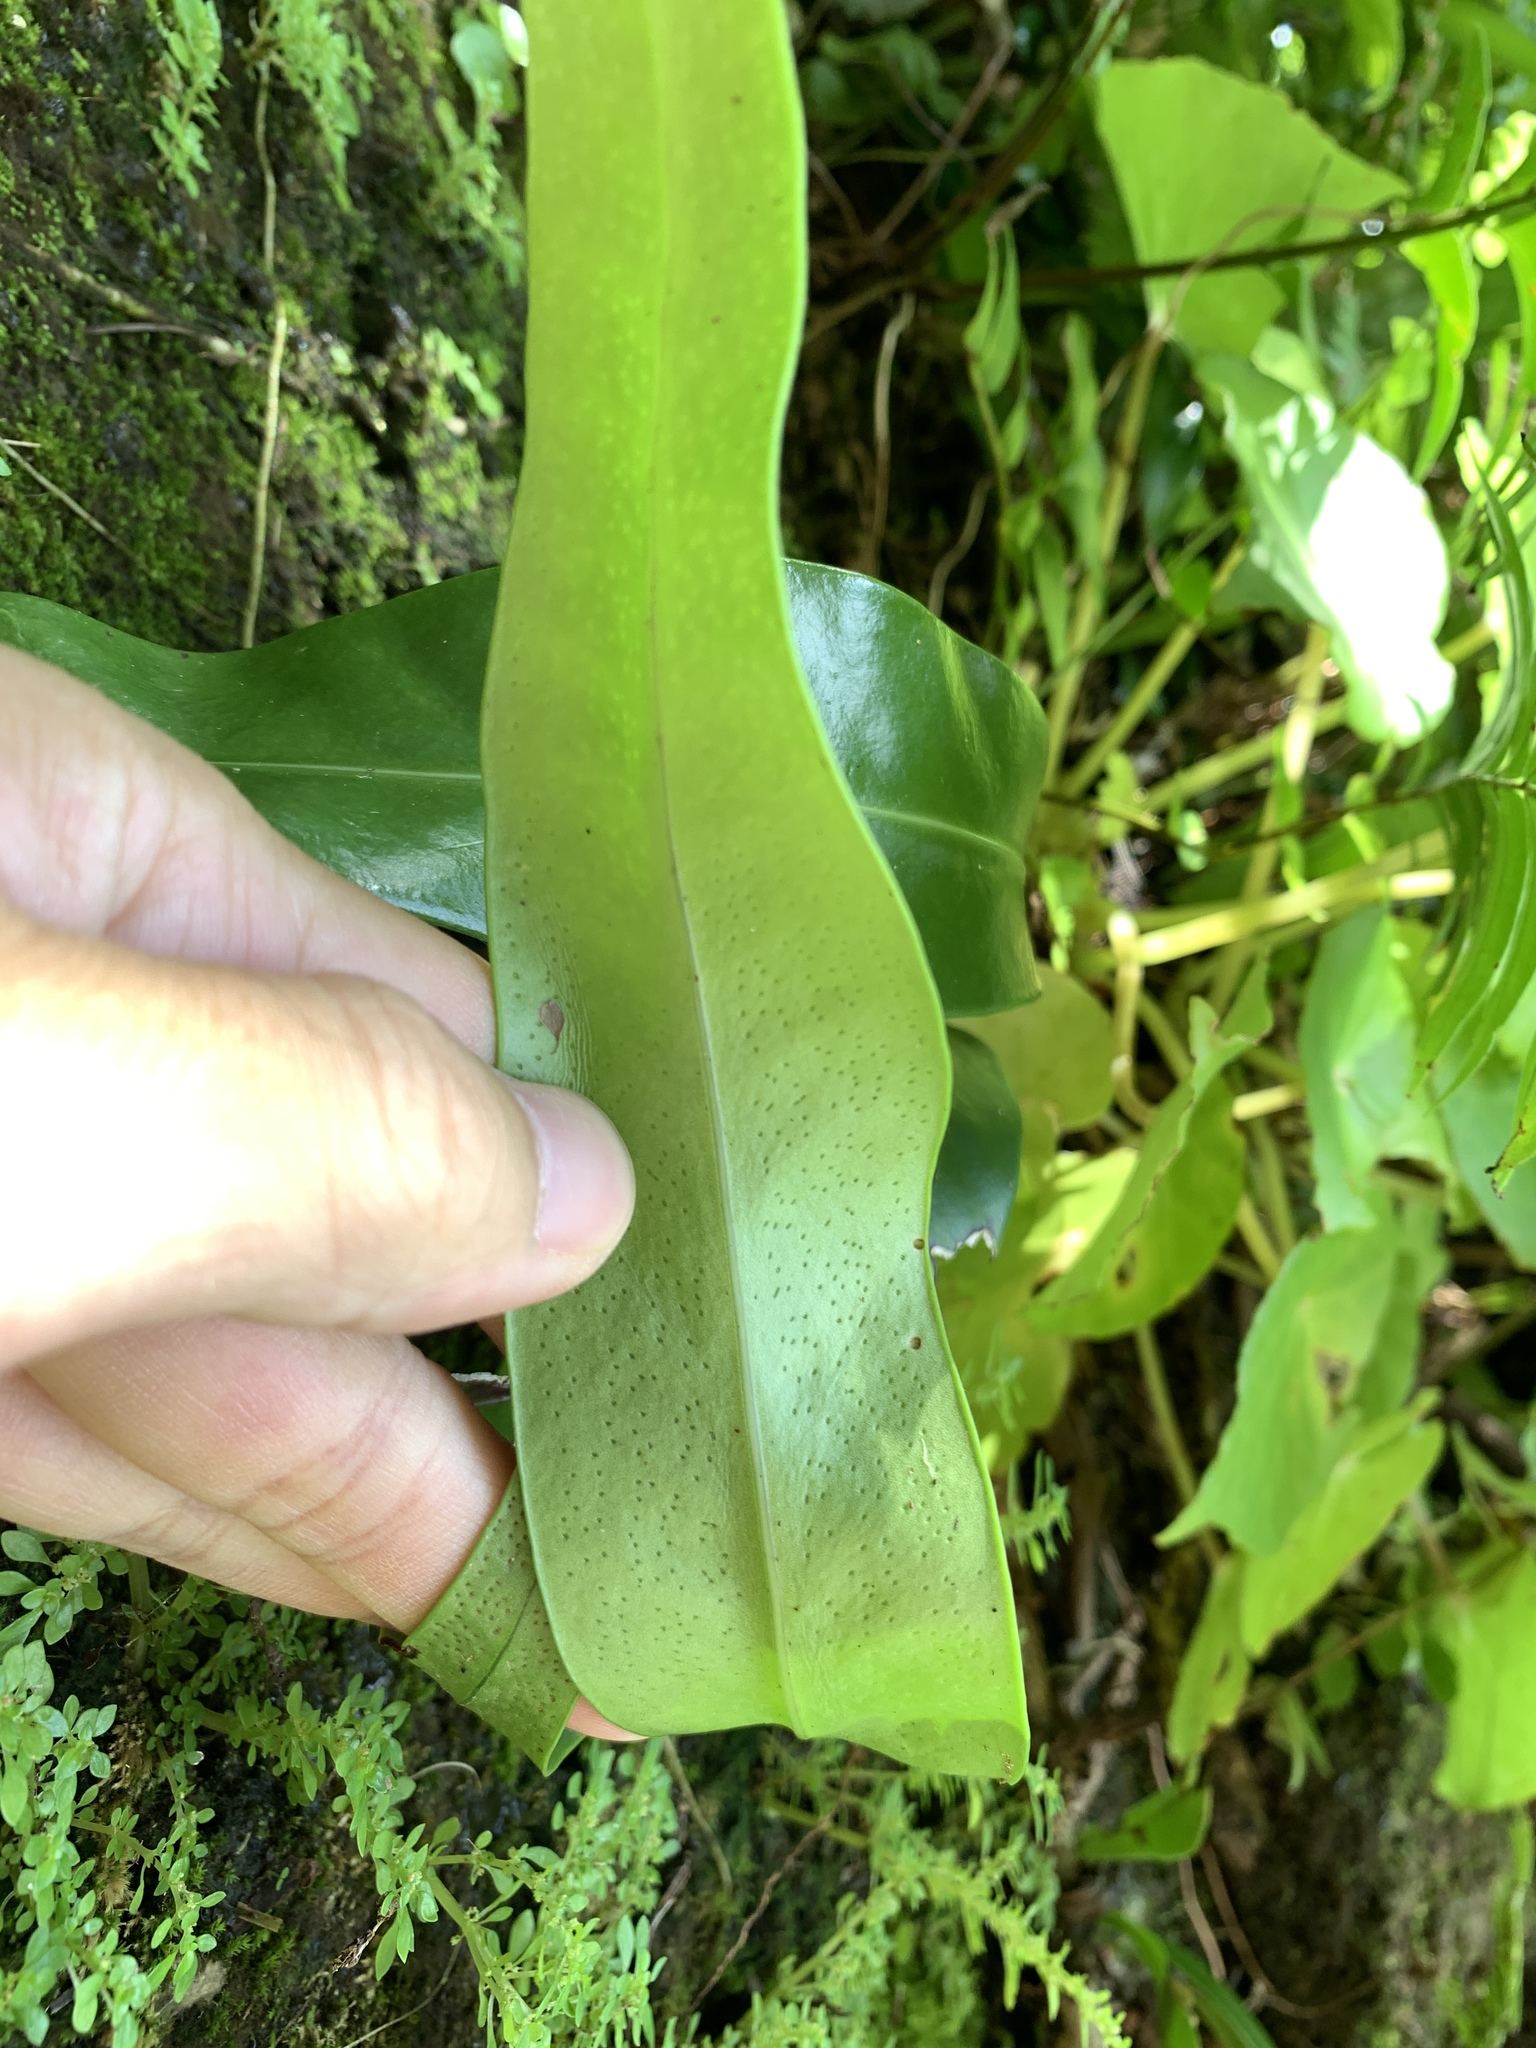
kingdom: Plantae
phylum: Tracheophyta
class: Polypodiopsida
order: Polypodiales
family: Polypodiaceae
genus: Microsorum
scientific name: Microsorum punctatum
